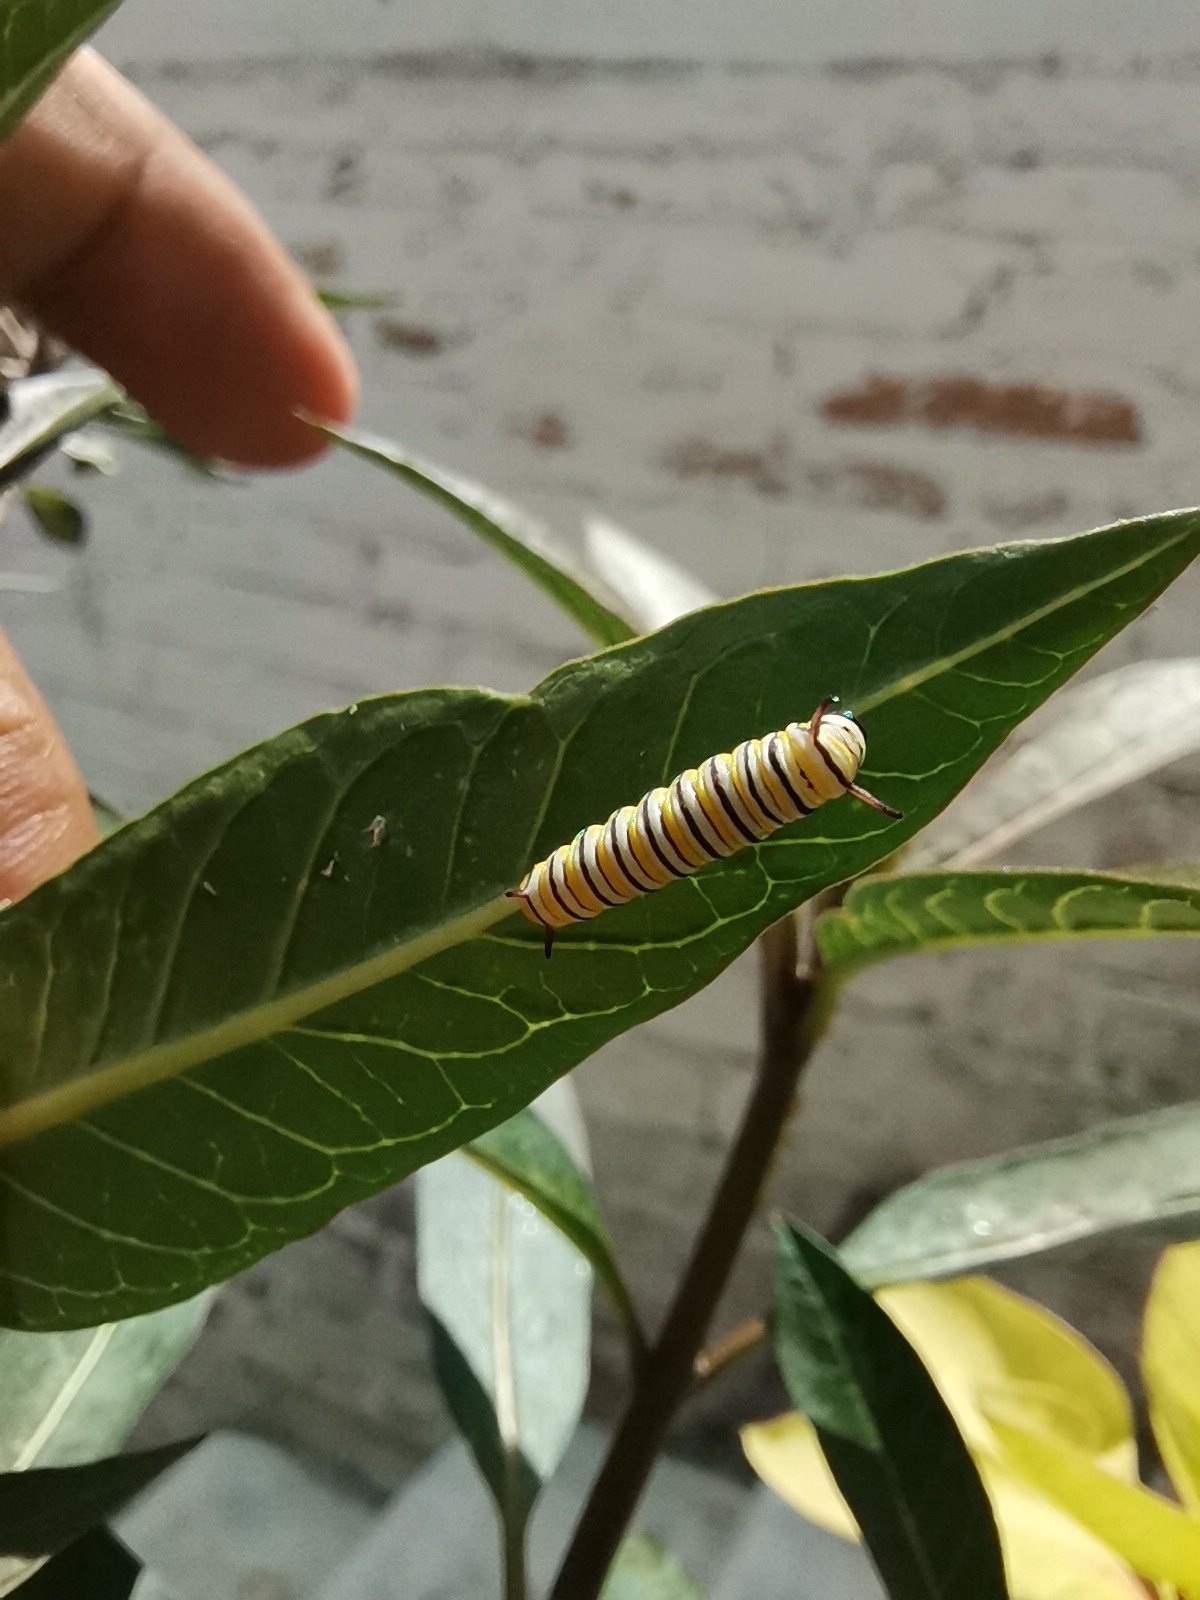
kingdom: Animalia
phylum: Arthropoda
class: Insecta
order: Lepidoptera
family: Nymphalidae
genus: Danaus
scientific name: Danaus plexippus
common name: Monarch
